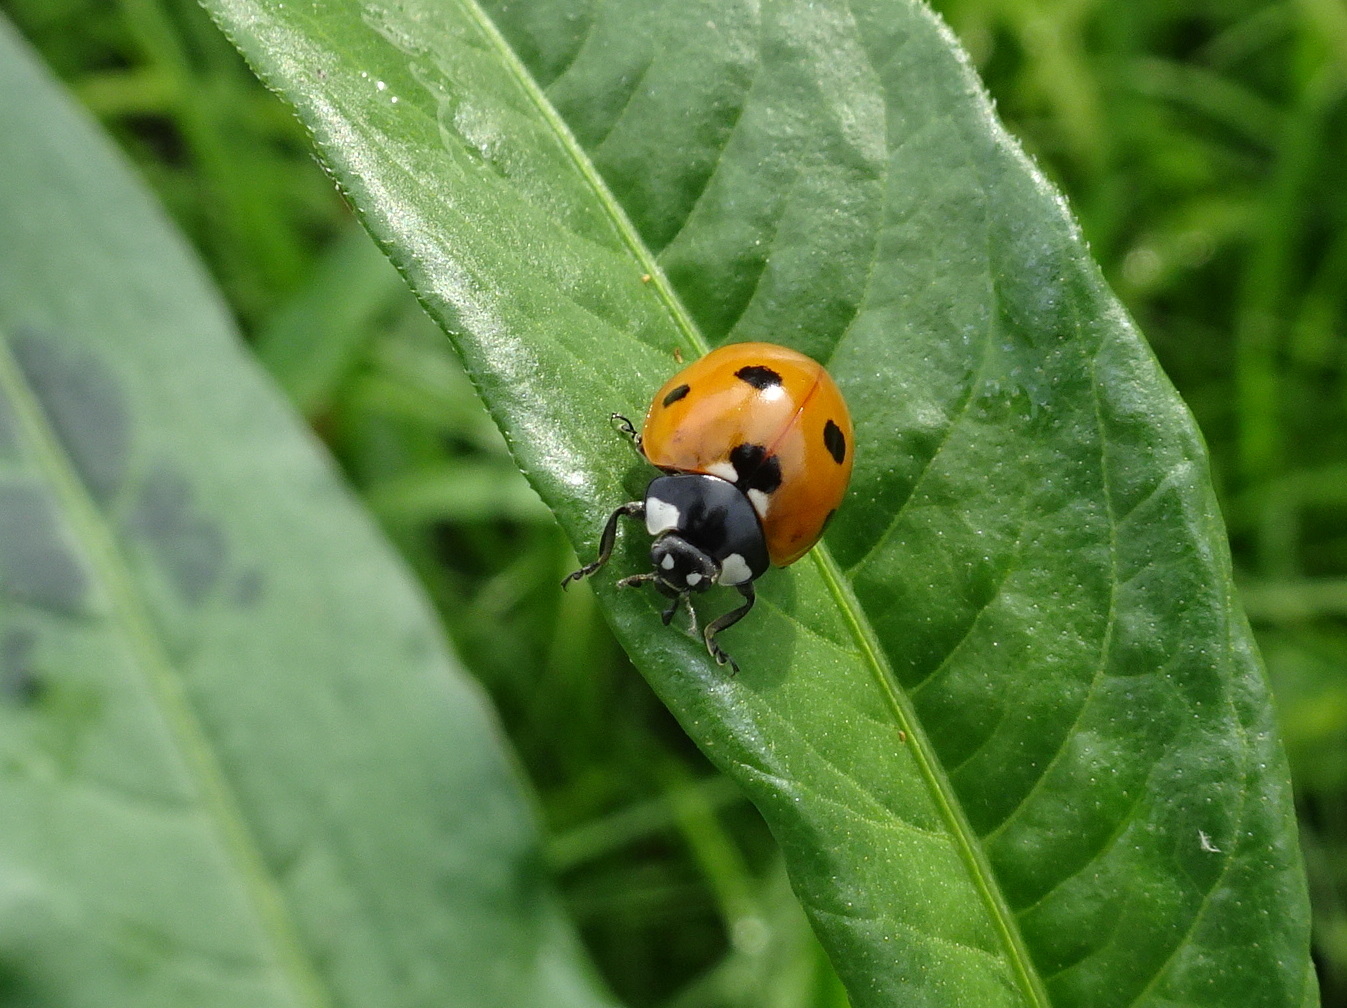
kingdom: Animalia
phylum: Arthropoda
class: Insecta
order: Coleoptera
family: Coccinellidae
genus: Coccinella
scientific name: Coccinella septempunctata
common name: Sevenspotted lady beetle
